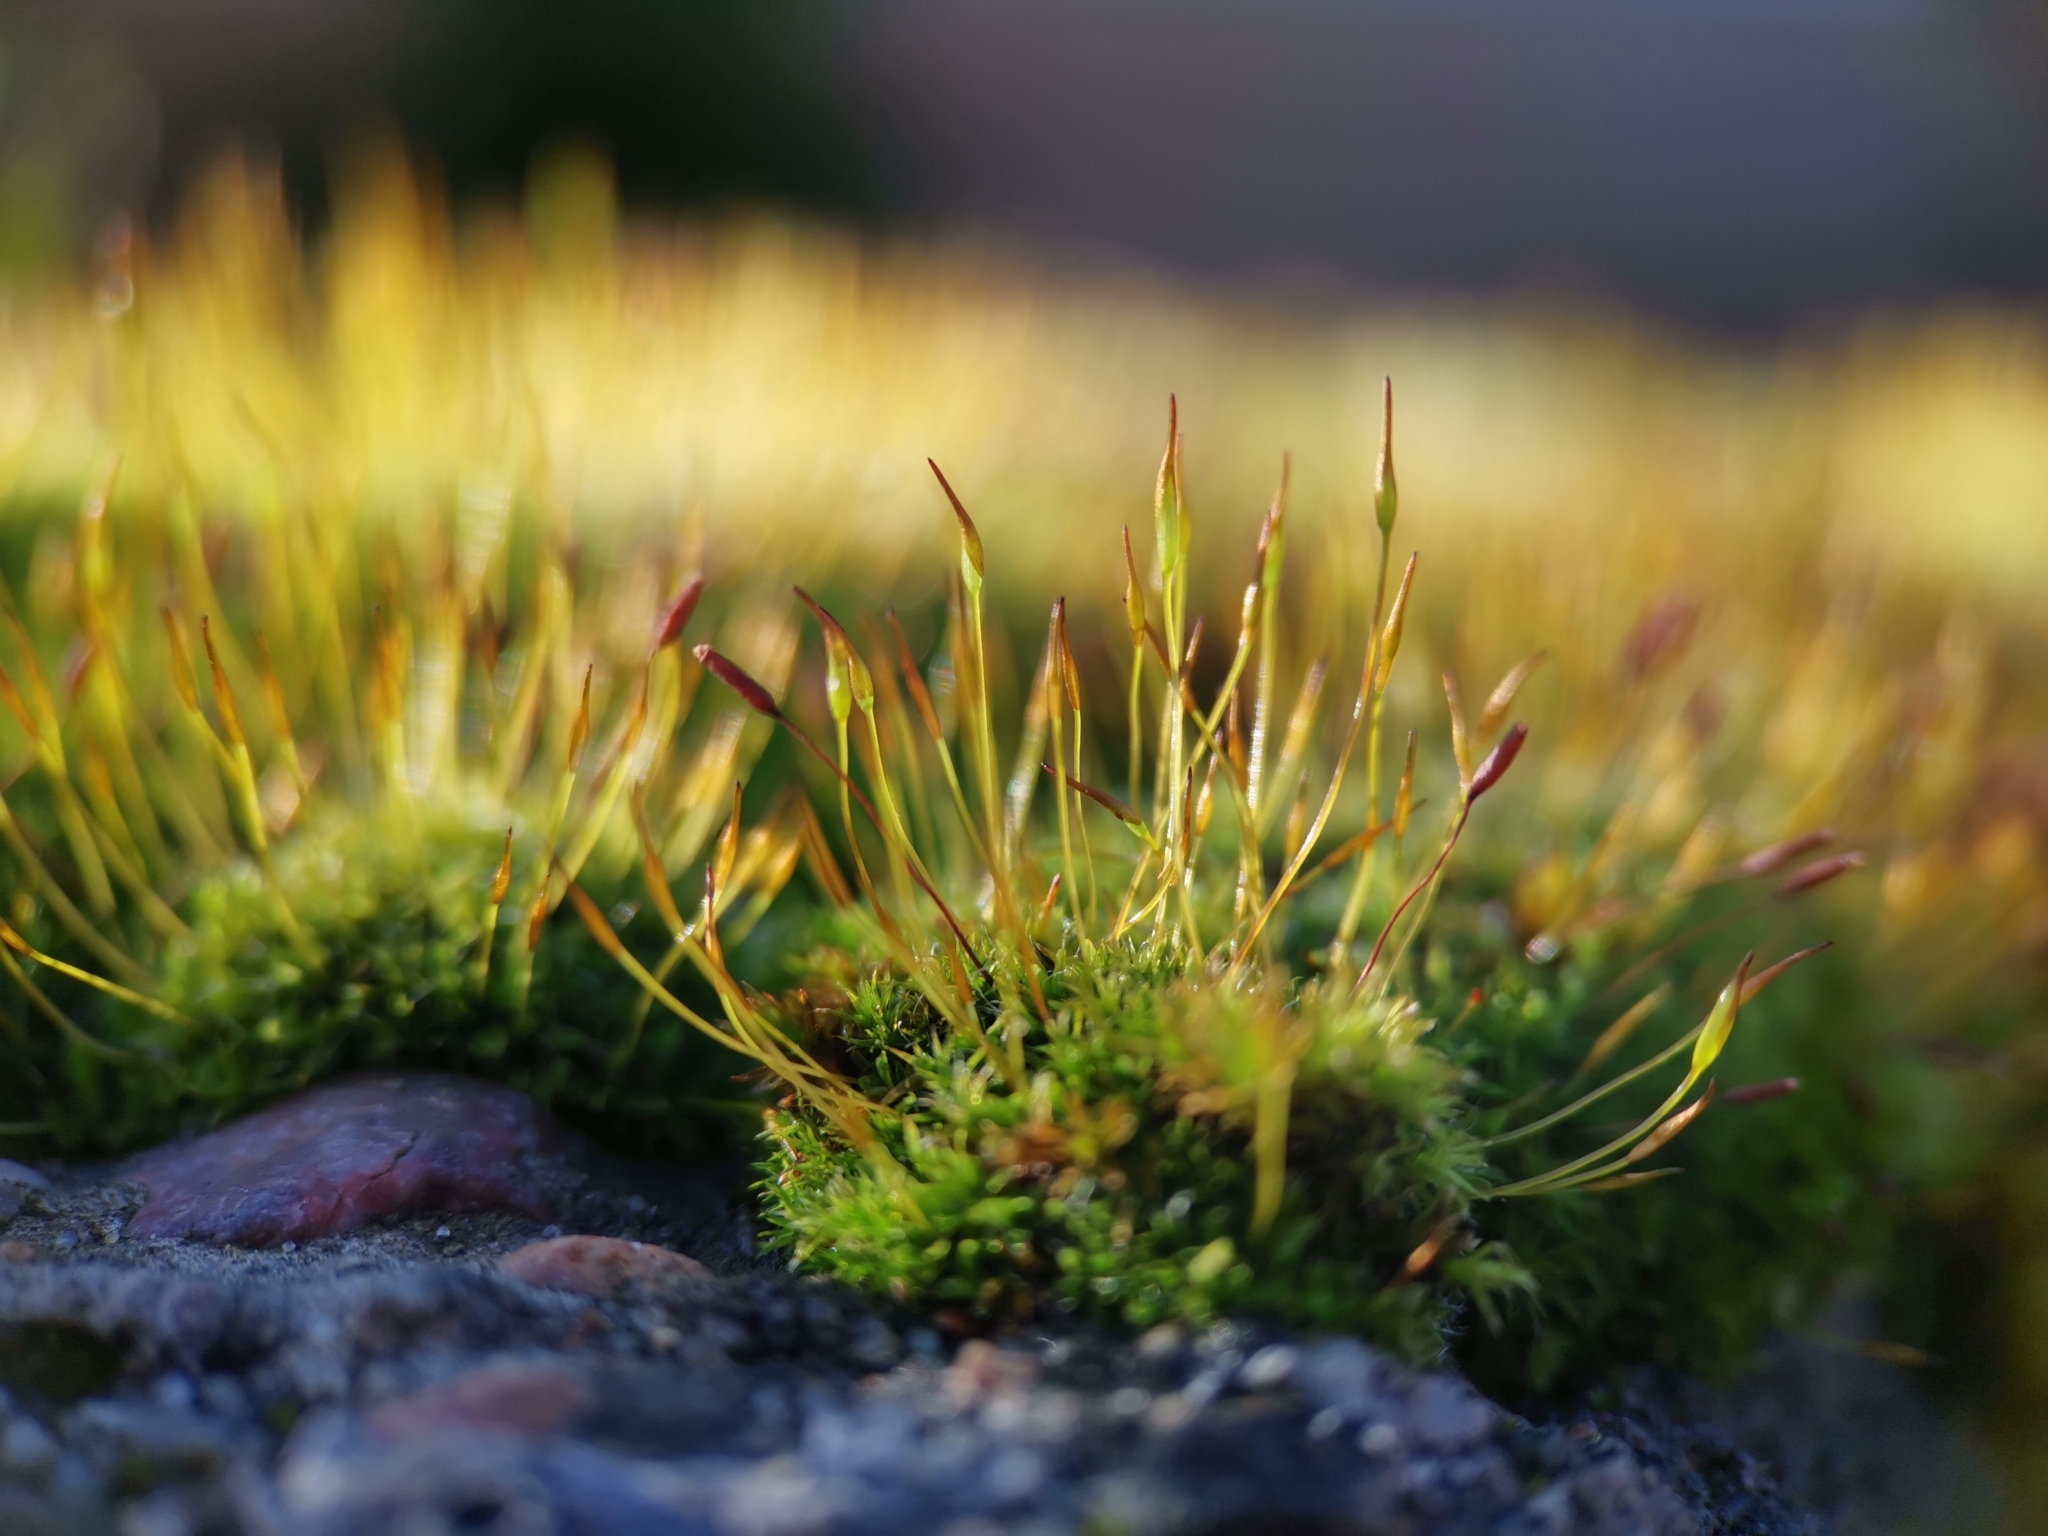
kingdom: Plantae
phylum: Bryophyta
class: Bryopsida
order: Pottiales
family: Pottiaceae
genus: Tortula
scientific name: Tortula muralis
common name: Wall screw-moss
